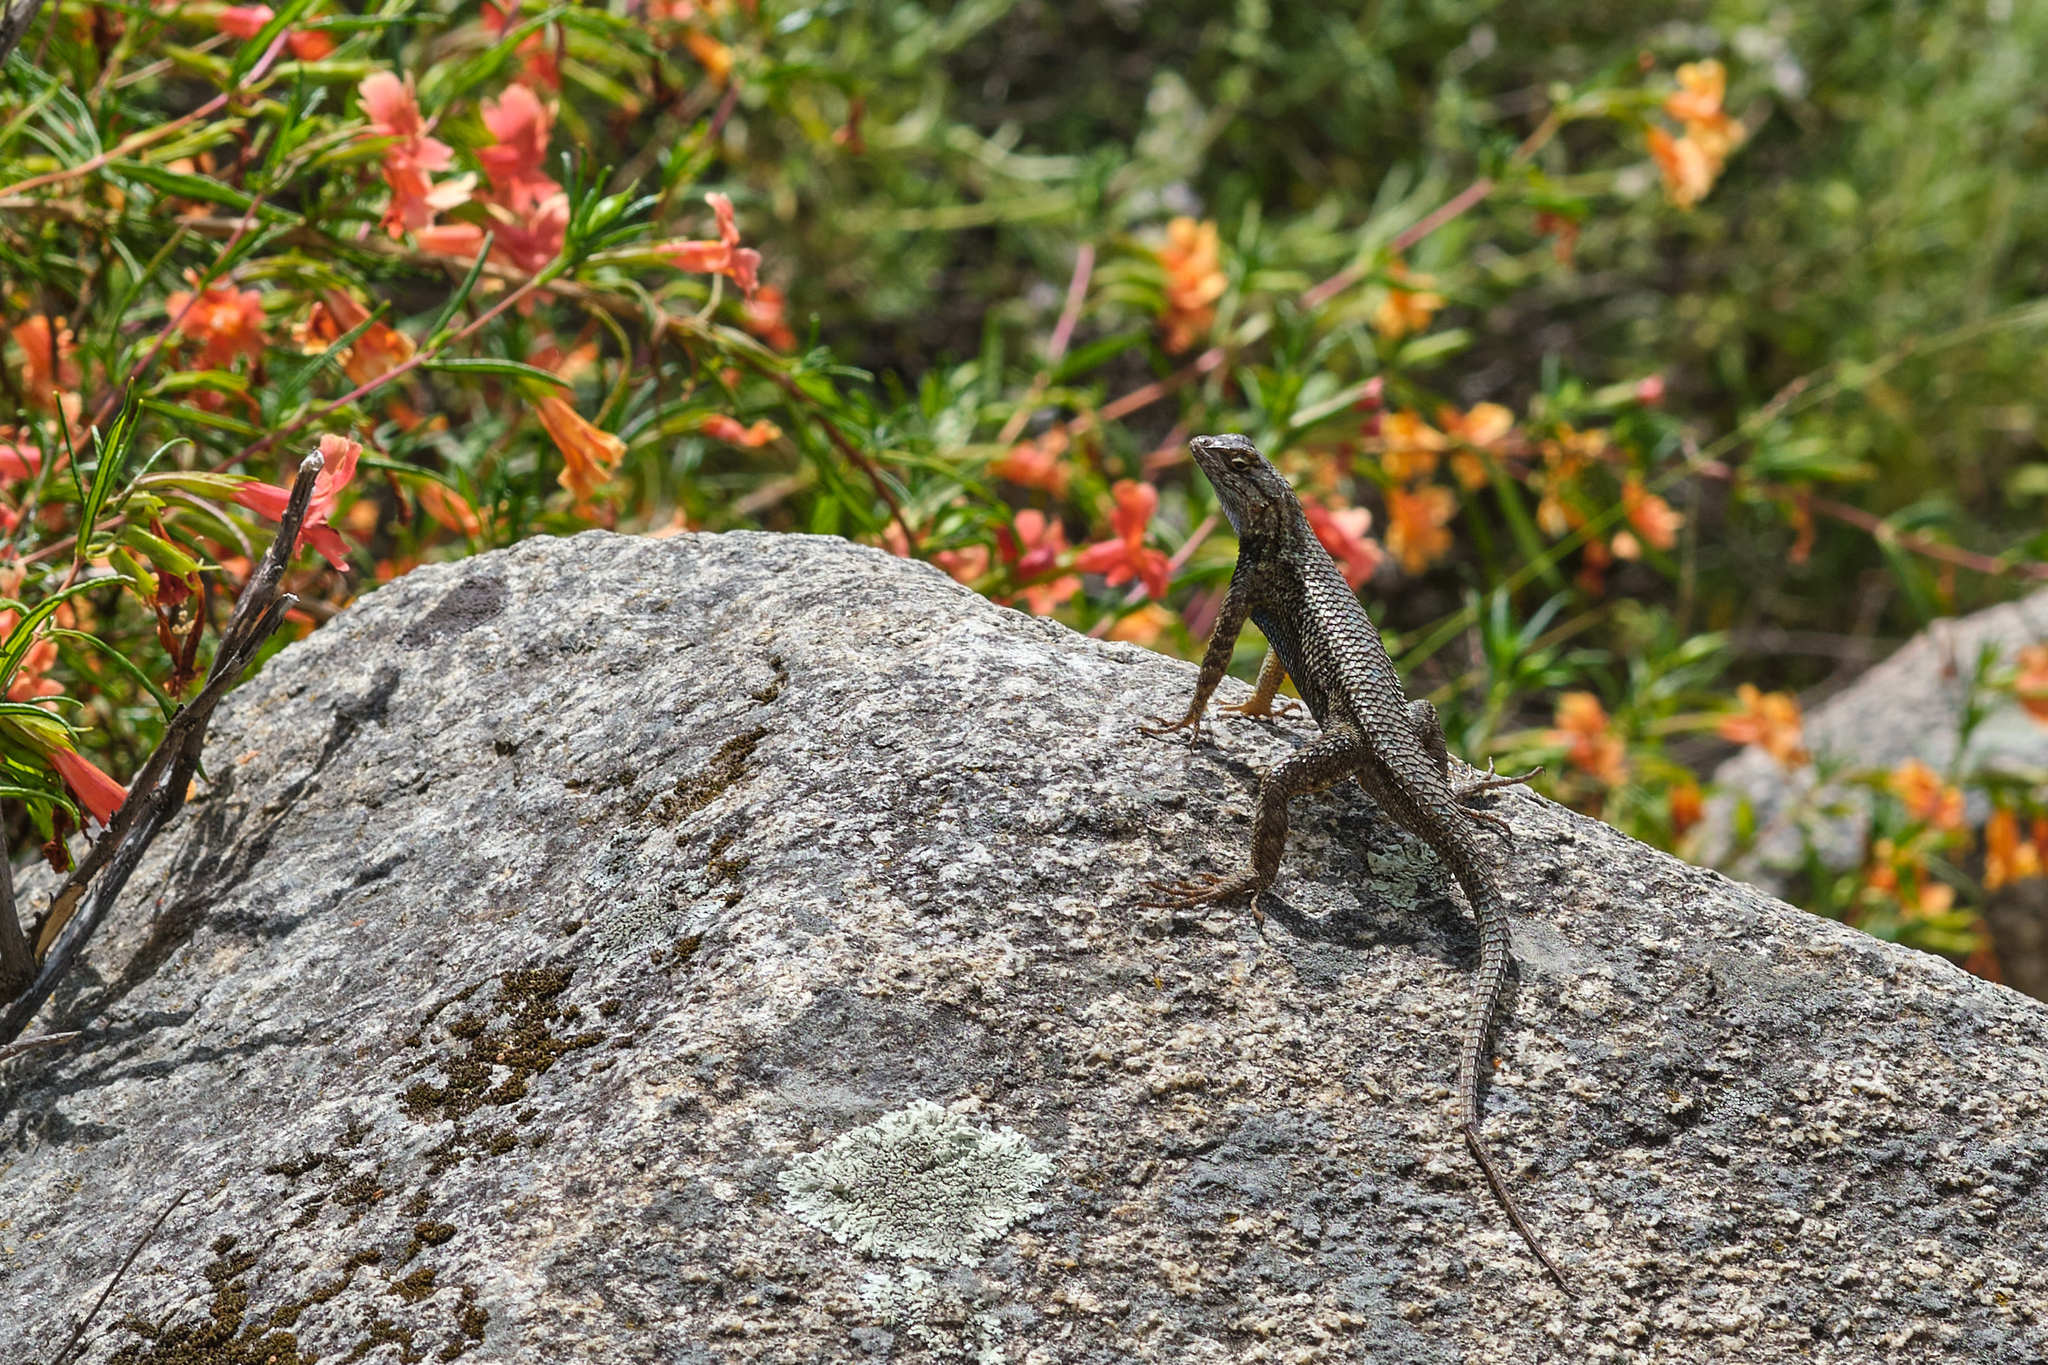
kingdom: Animalia
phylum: Chordata
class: Squamata
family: Phrynosomatidae
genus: Sceloporus
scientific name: Sceloporus occidentalis
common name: Western fence lizard
